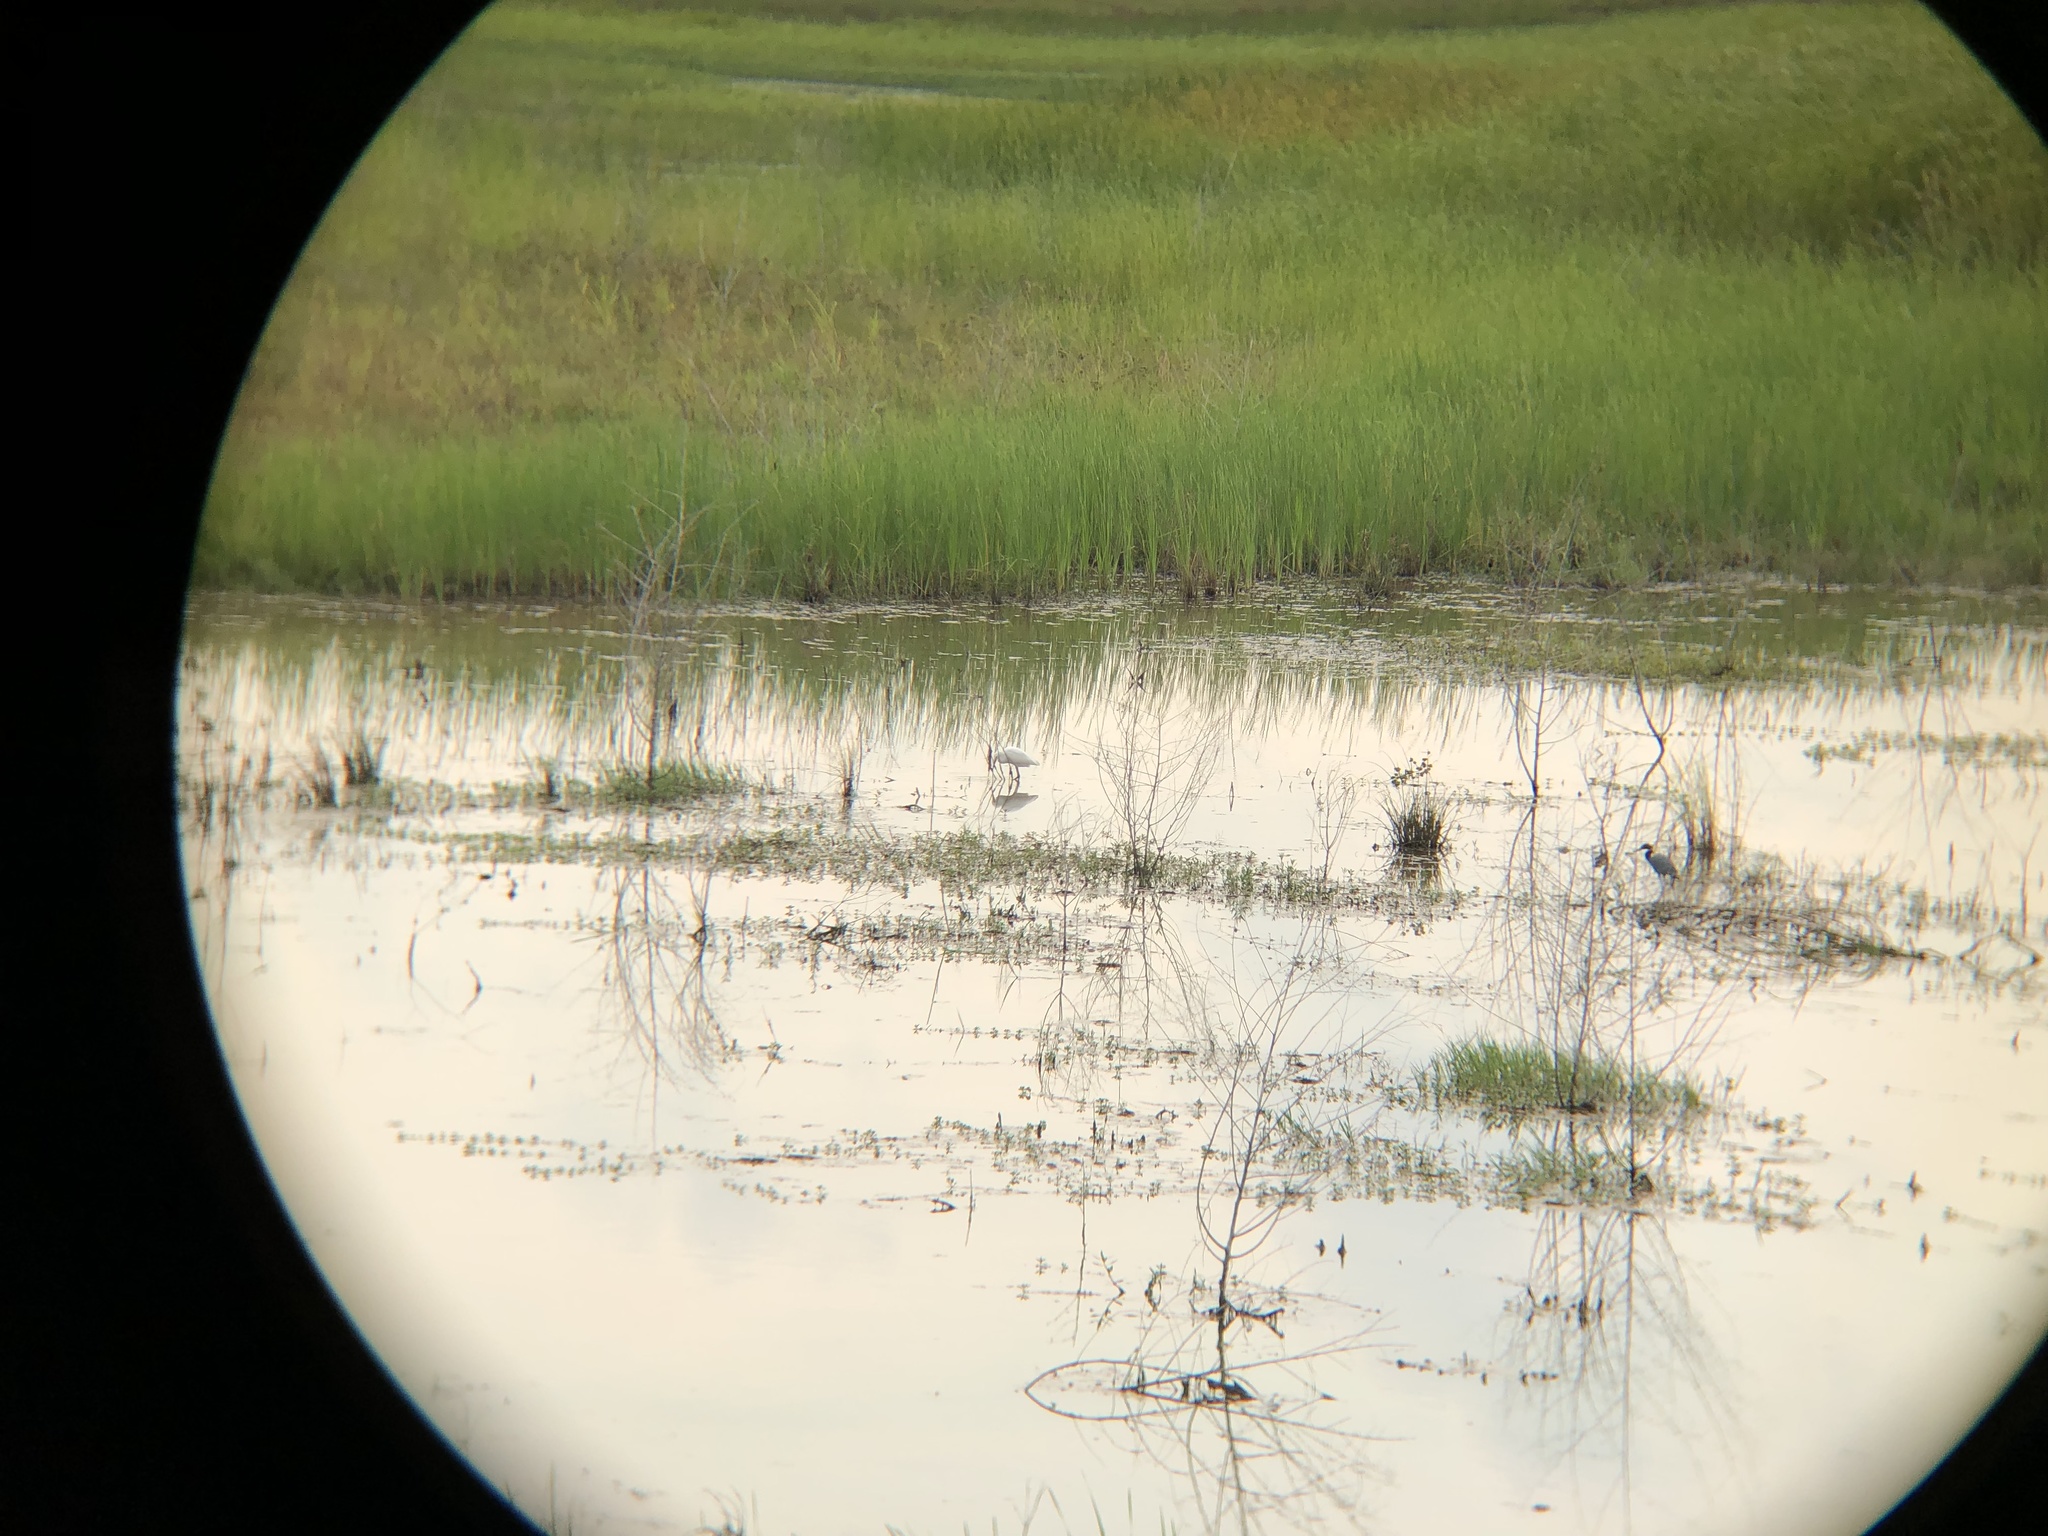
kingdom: Animalia
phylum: Chordata
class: Aves
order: Pelecaniformes
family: Ardeidae
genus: Egretta
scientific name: Egretta caerulea
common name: Little blue heron
